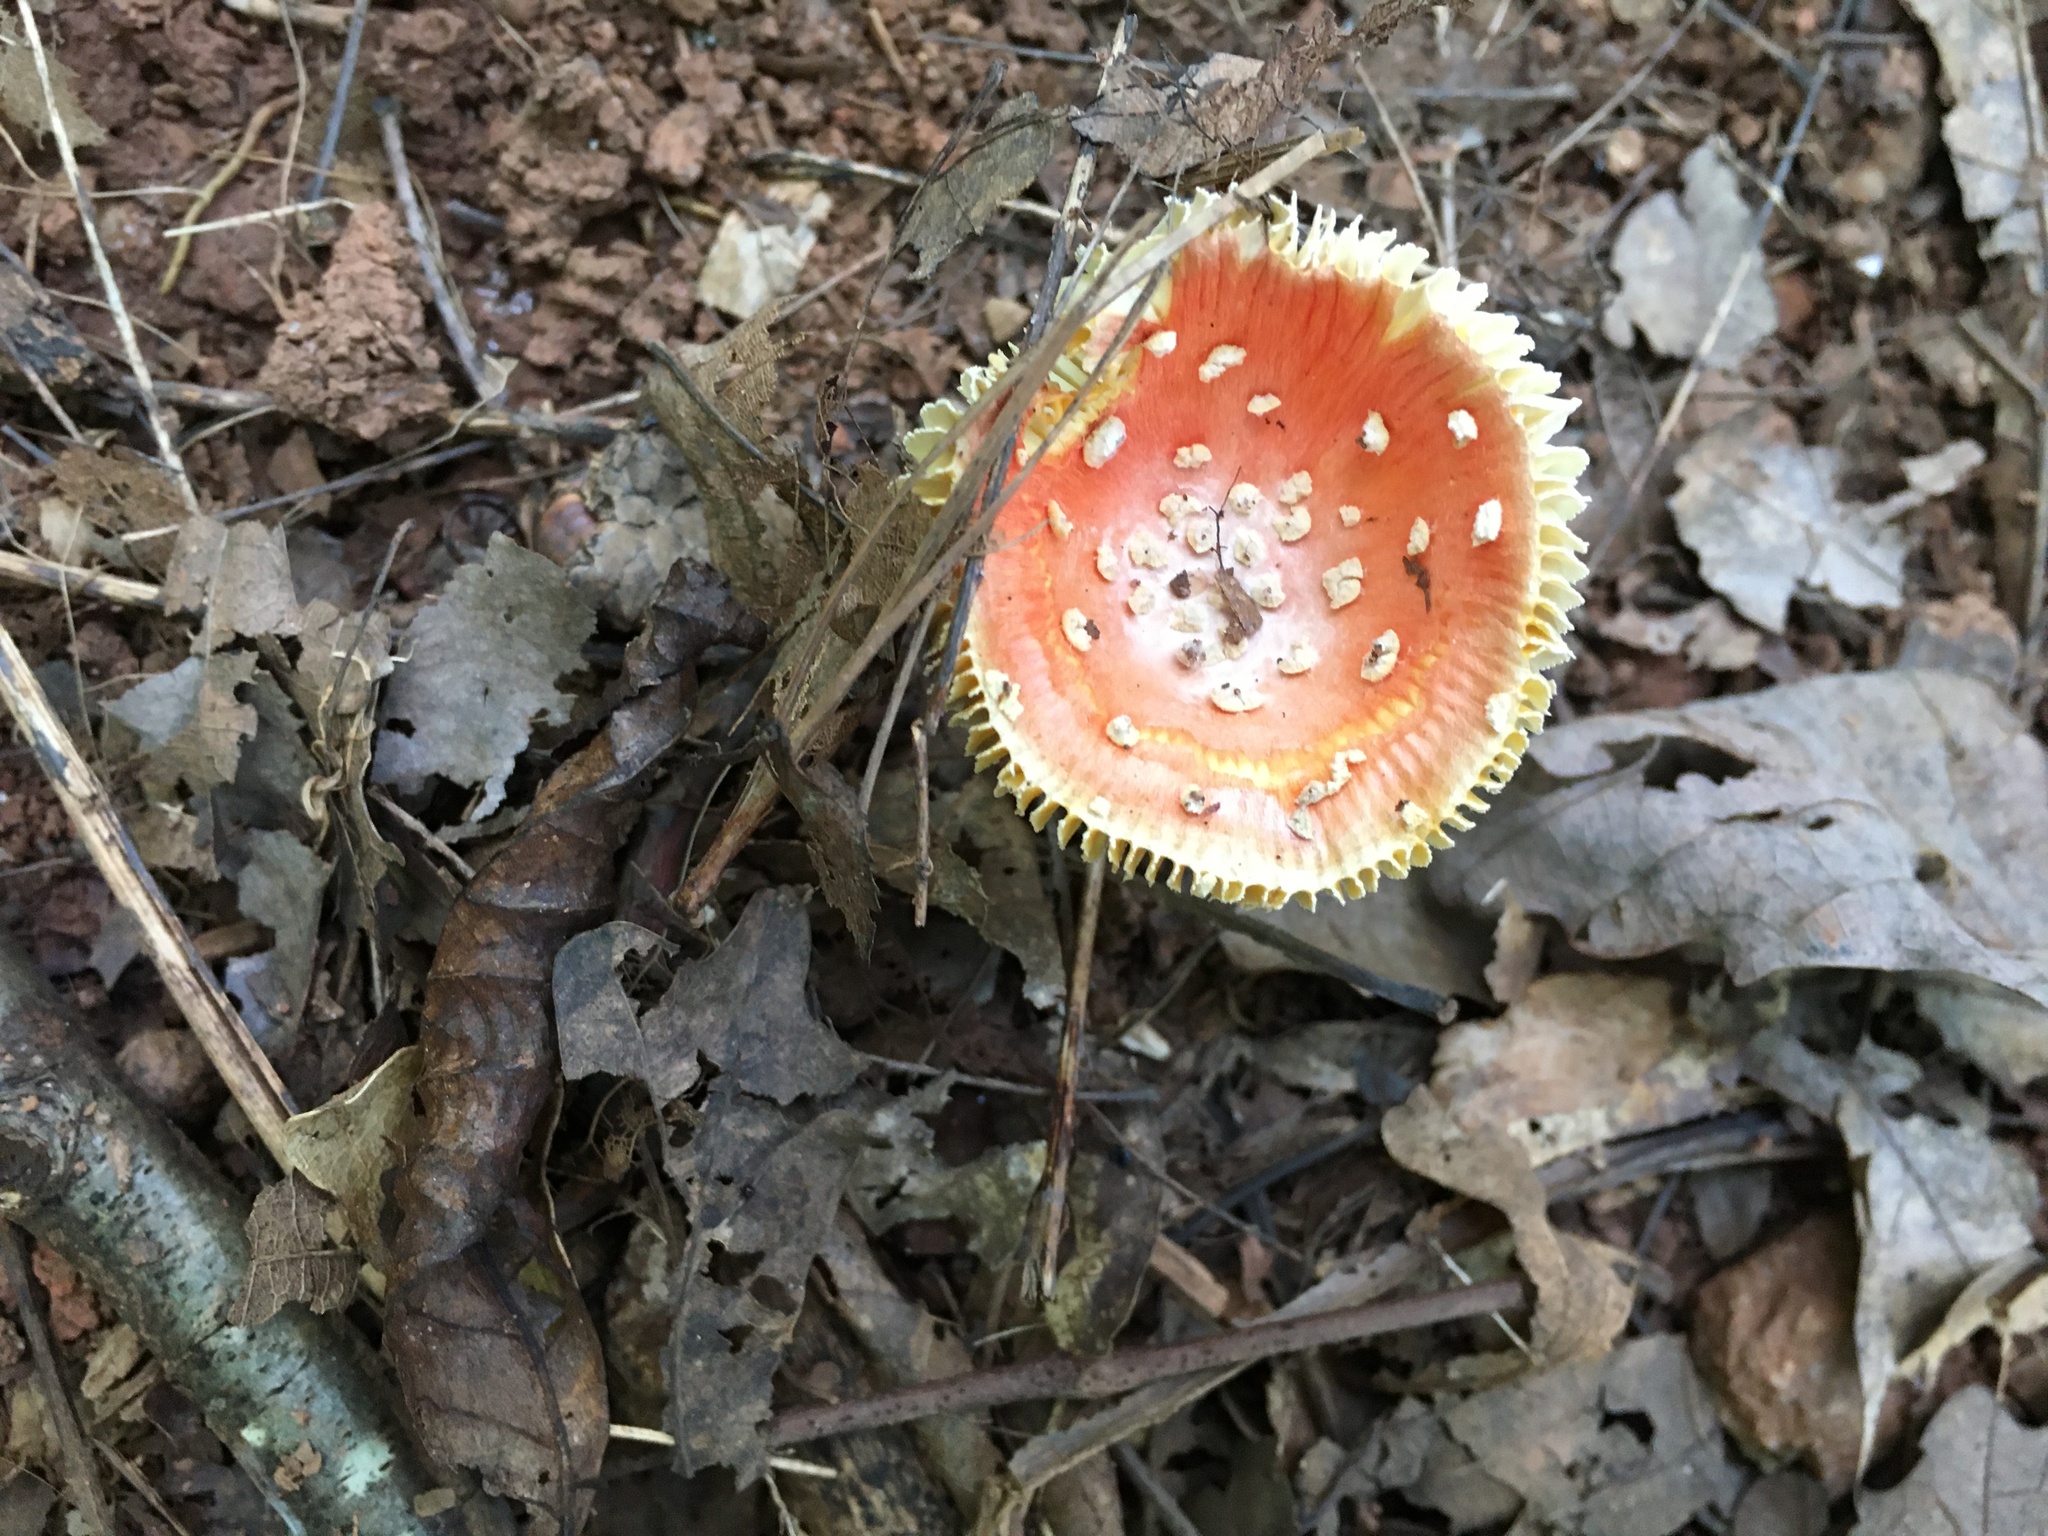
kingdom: Fungi
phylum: Basidiomycota
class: Agaricomycetes
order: Agaricales
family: Amanitaceae
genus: Amanita
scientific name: Amanita parcivolvata
